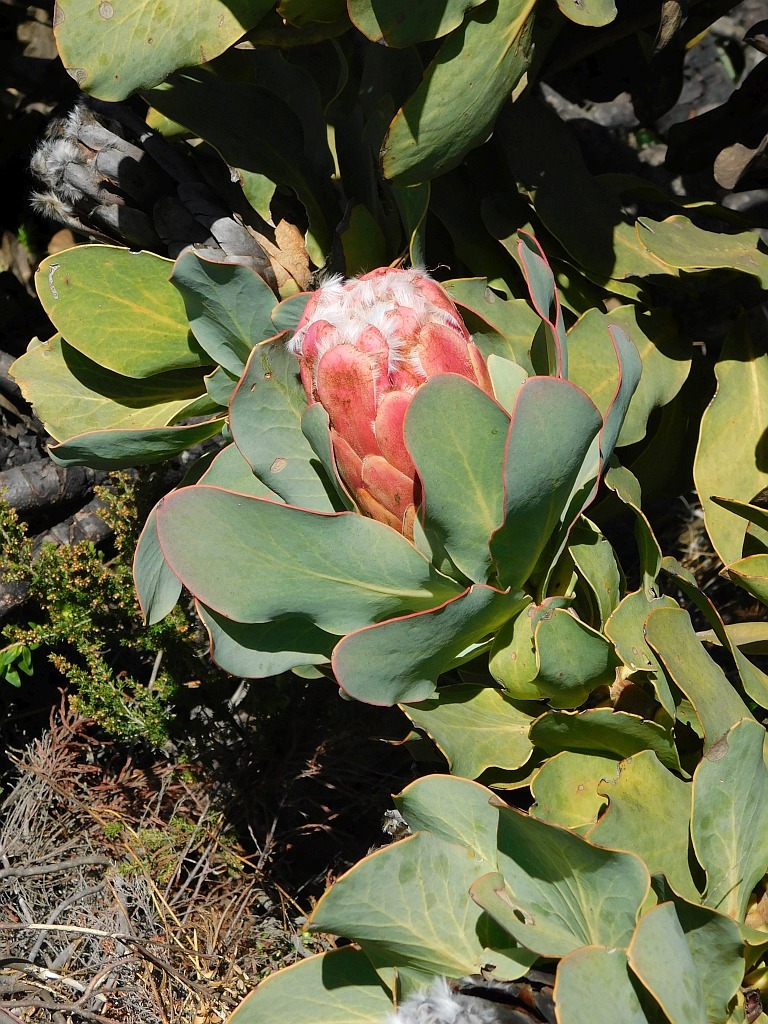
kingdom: Plantae
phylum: Tracheophyta
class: Magnoliopsida
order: Proteales
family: Proteaceae
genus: Protea
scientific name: Protea grandiceps
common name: Red sugarbush
